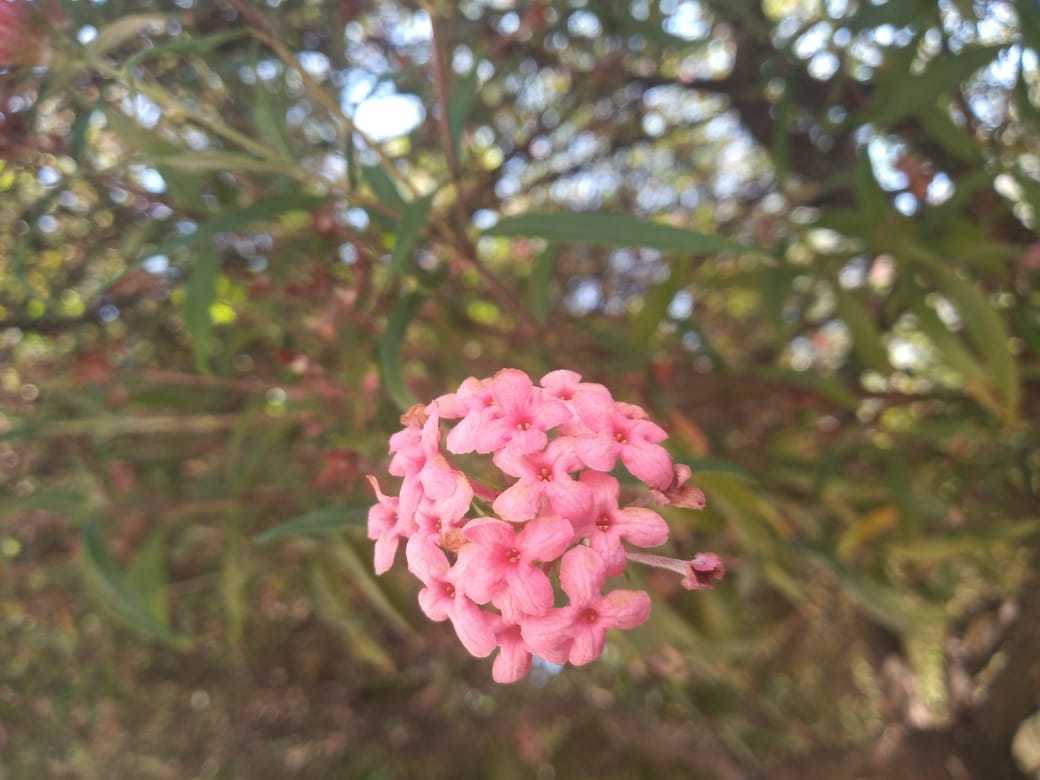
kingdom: Plantae
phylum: Tracheophyta
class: Magnoliopsida
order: Gentianales
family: Rubiaceae
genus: Arachnothryx
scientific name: Arachnothryx leucophylla
